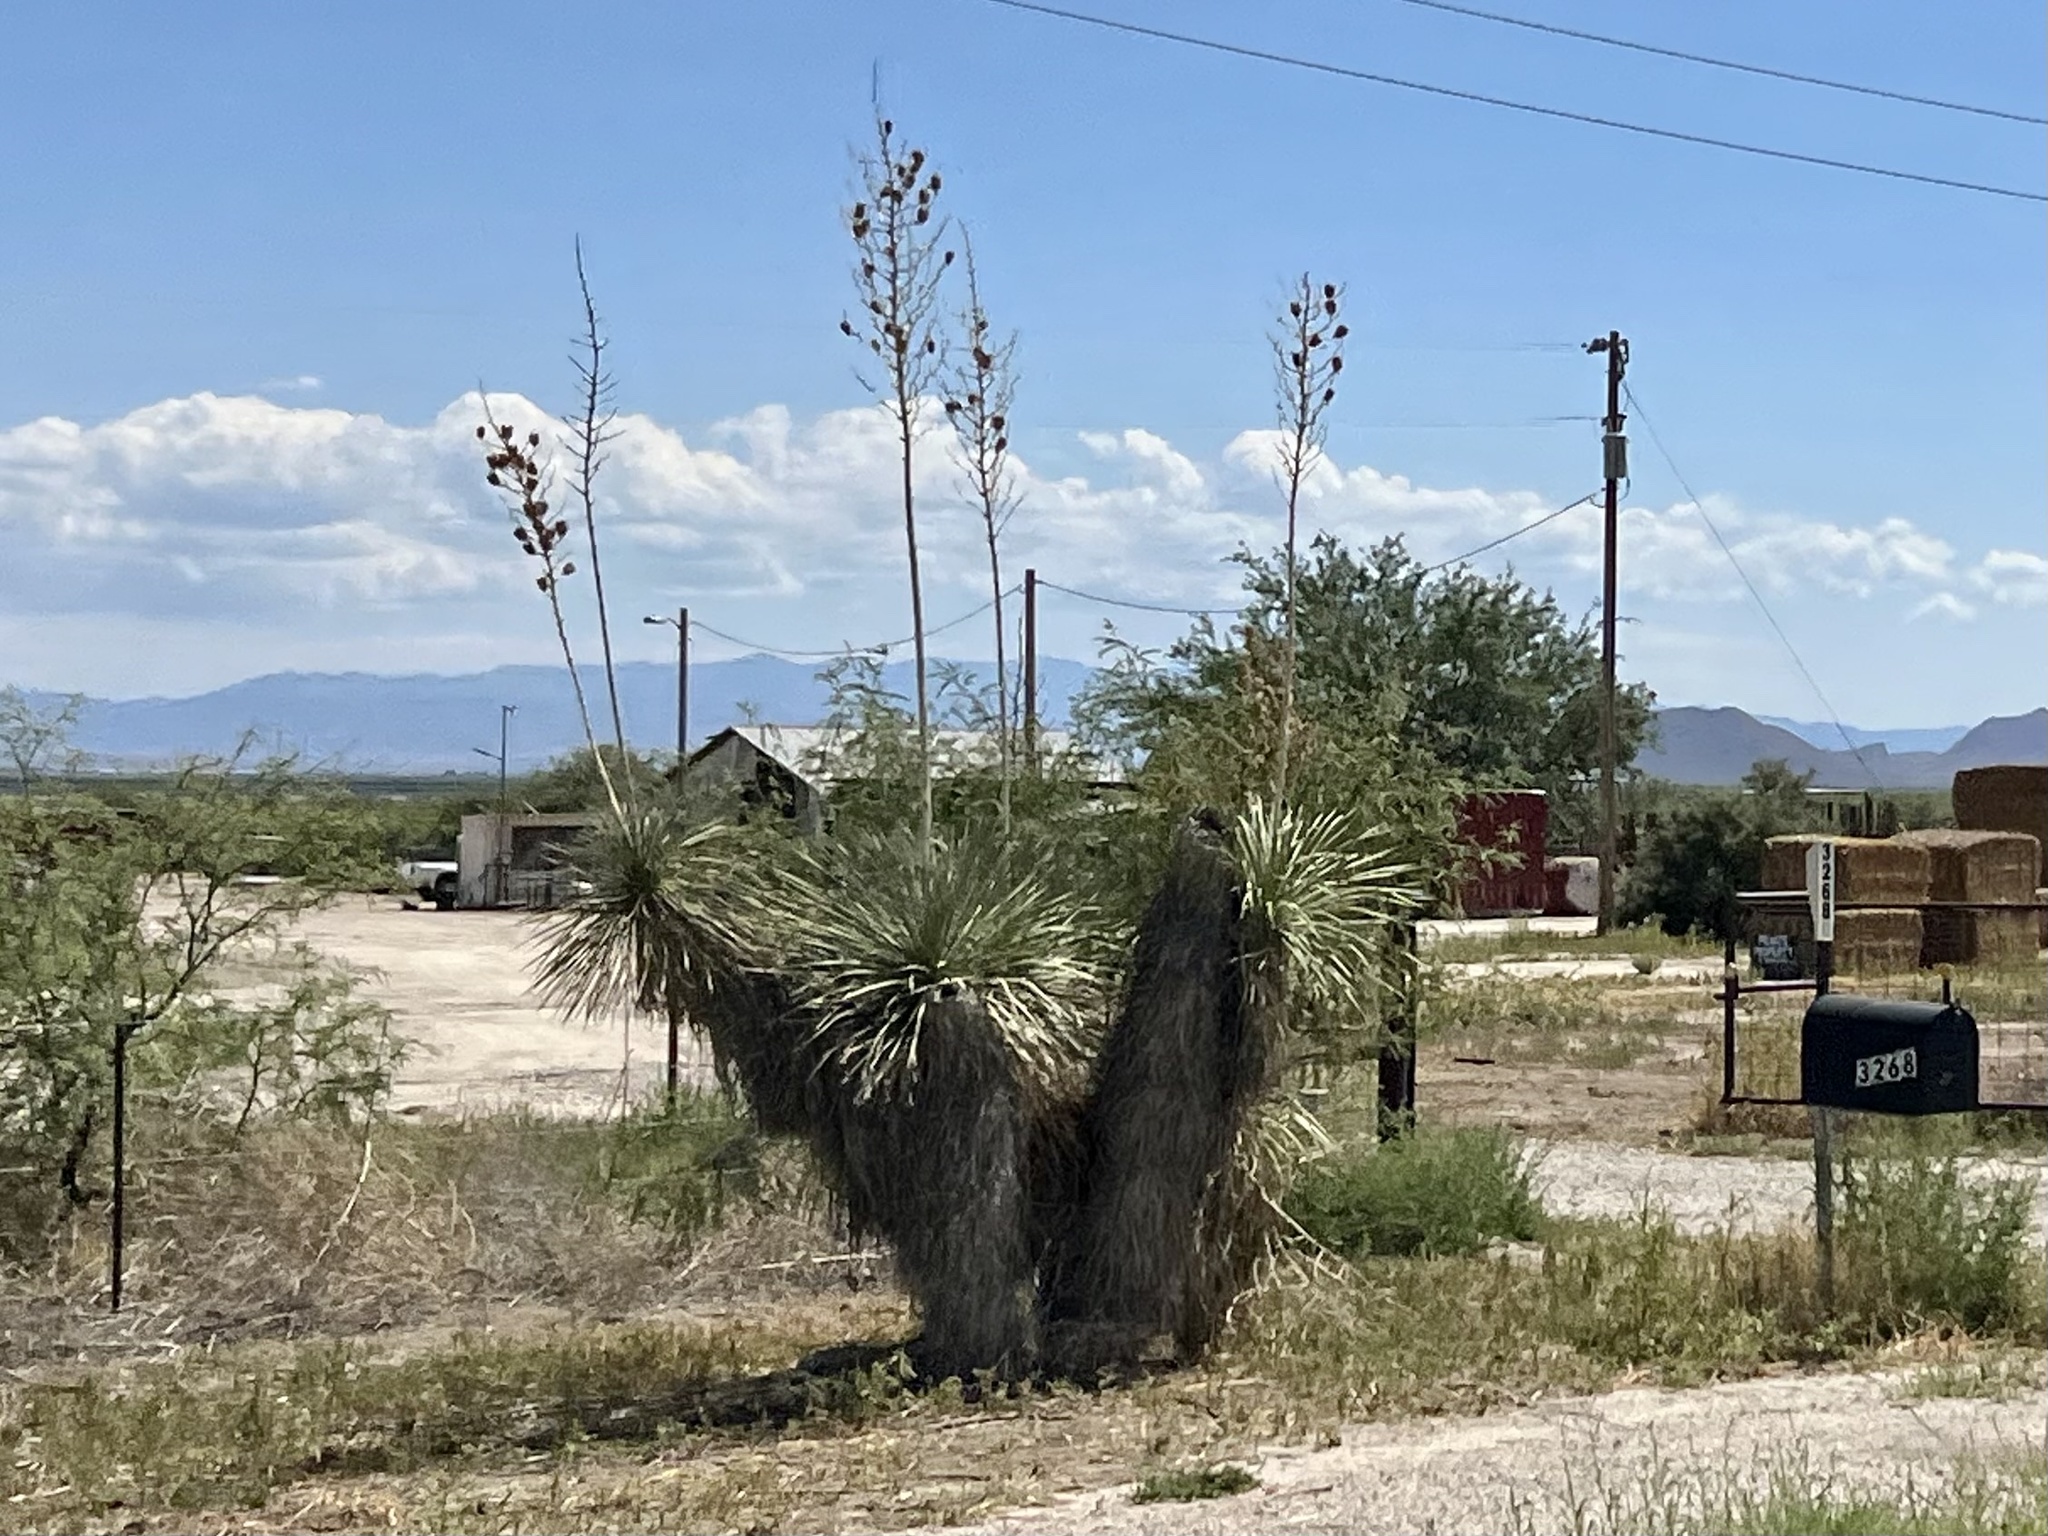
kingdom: Plantae
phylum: Tracheophyta
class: Liliopsida
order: Asparagales
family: Asparagaceae
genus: Yucca
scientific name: Yucca elata
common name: Palmella
